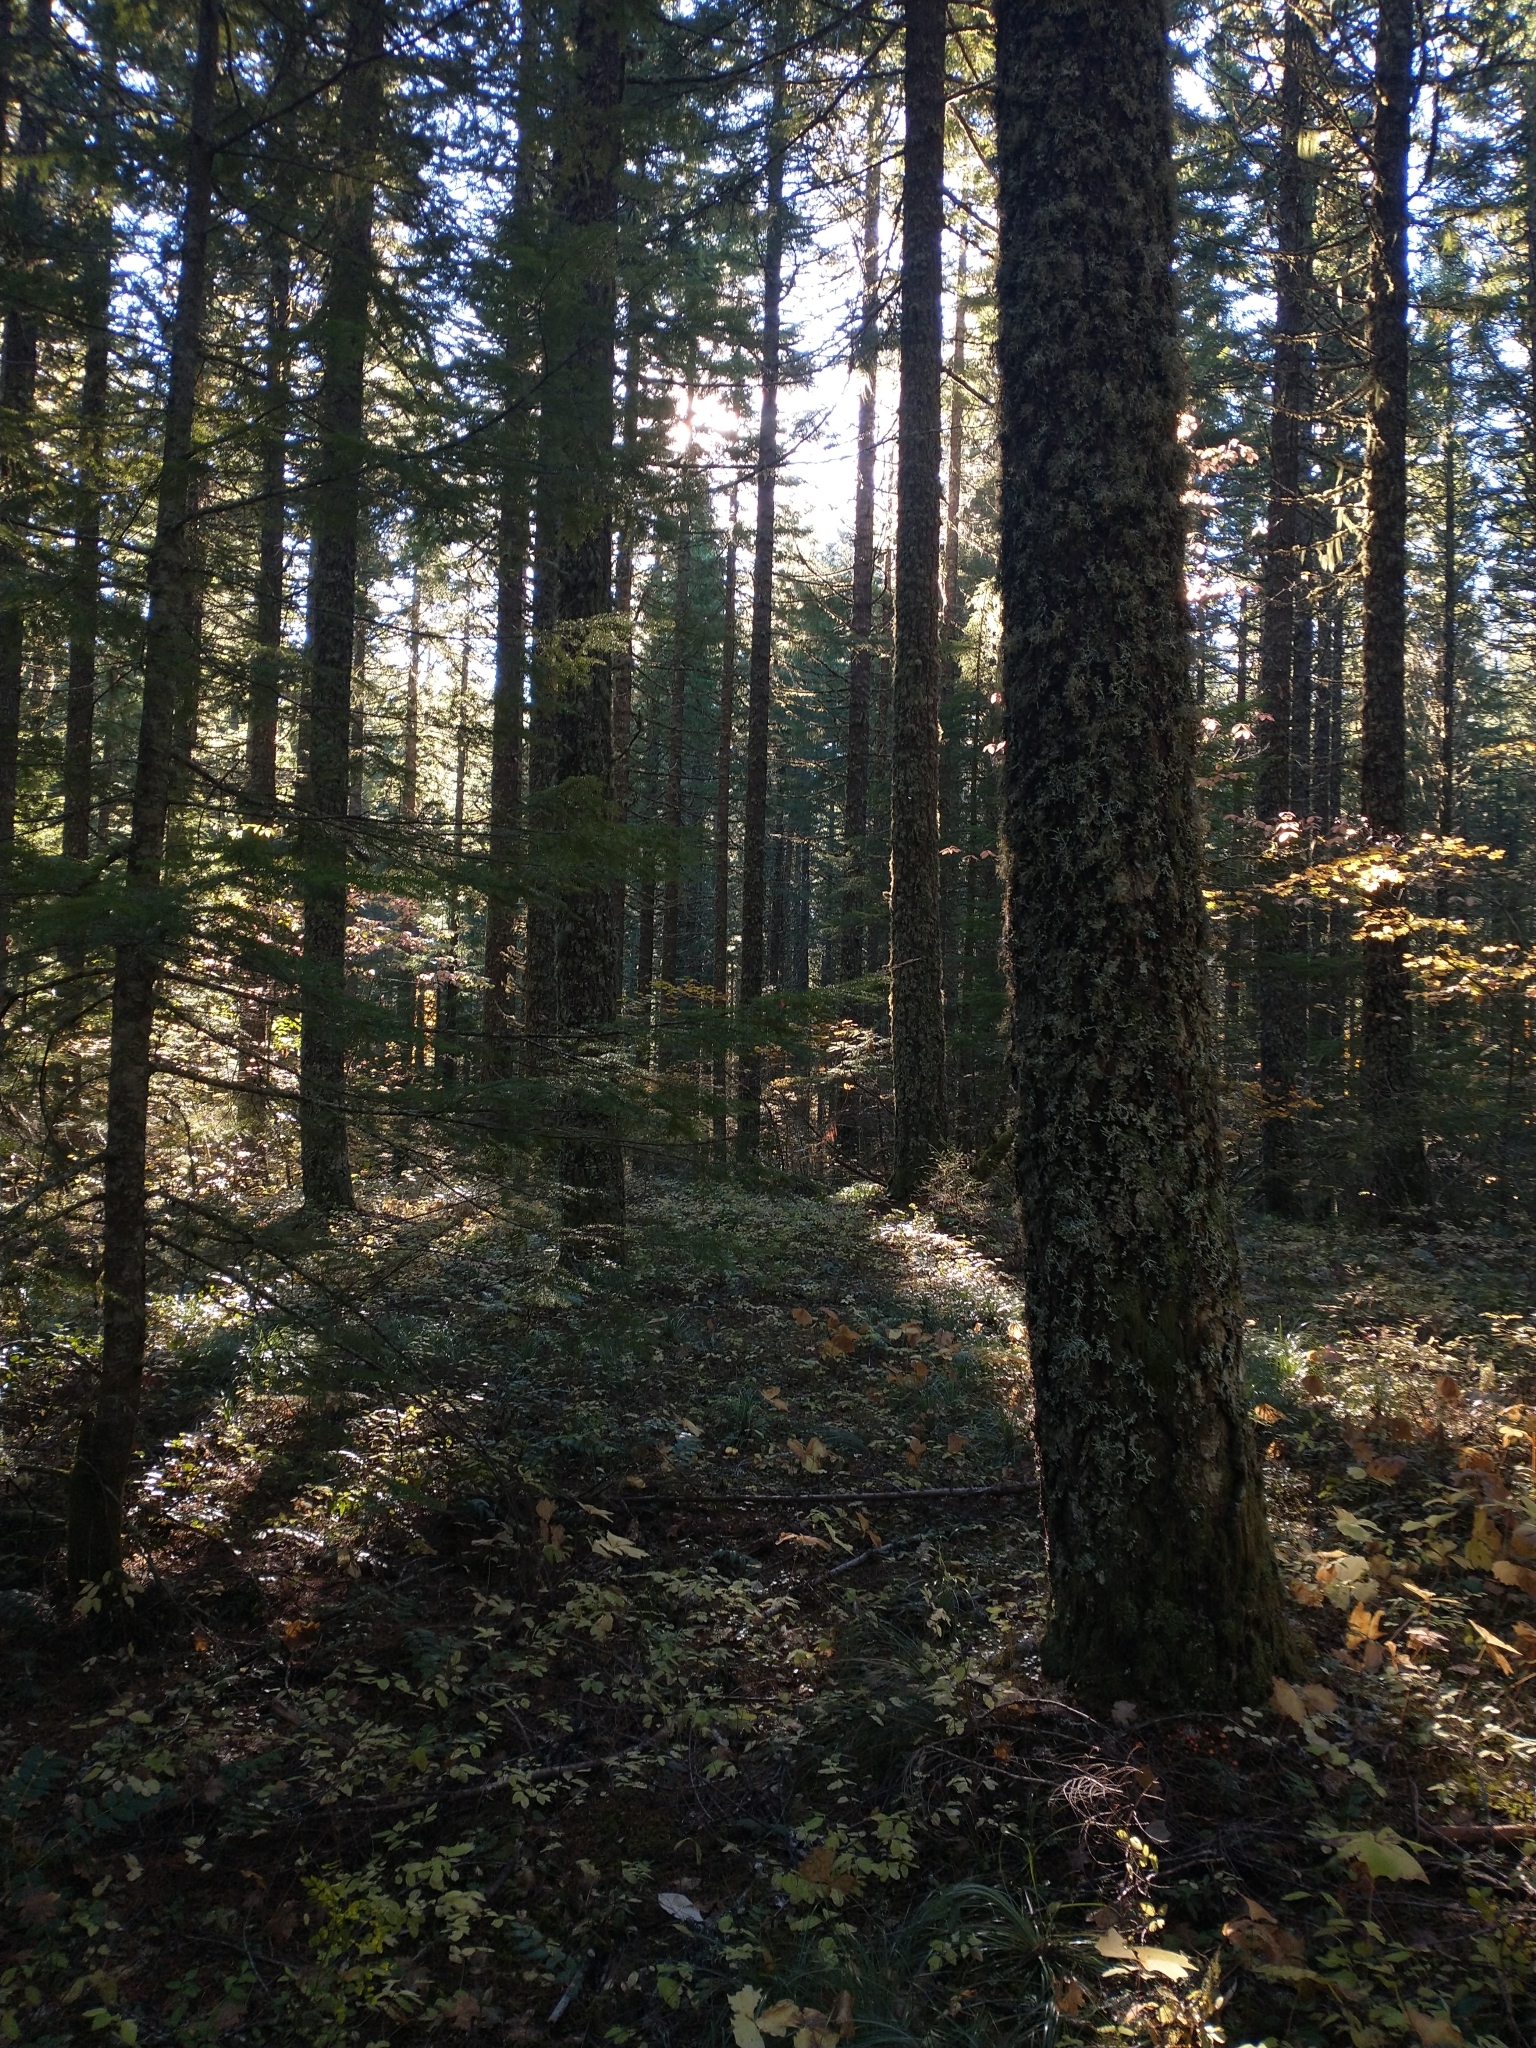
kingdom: Plantae
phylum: Tracheophyta
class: Pinopsida
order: Pinales
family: Pinaceae
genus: Pseudotsuga
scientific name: Pseudotsuga menziesii
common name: Douglas fir
